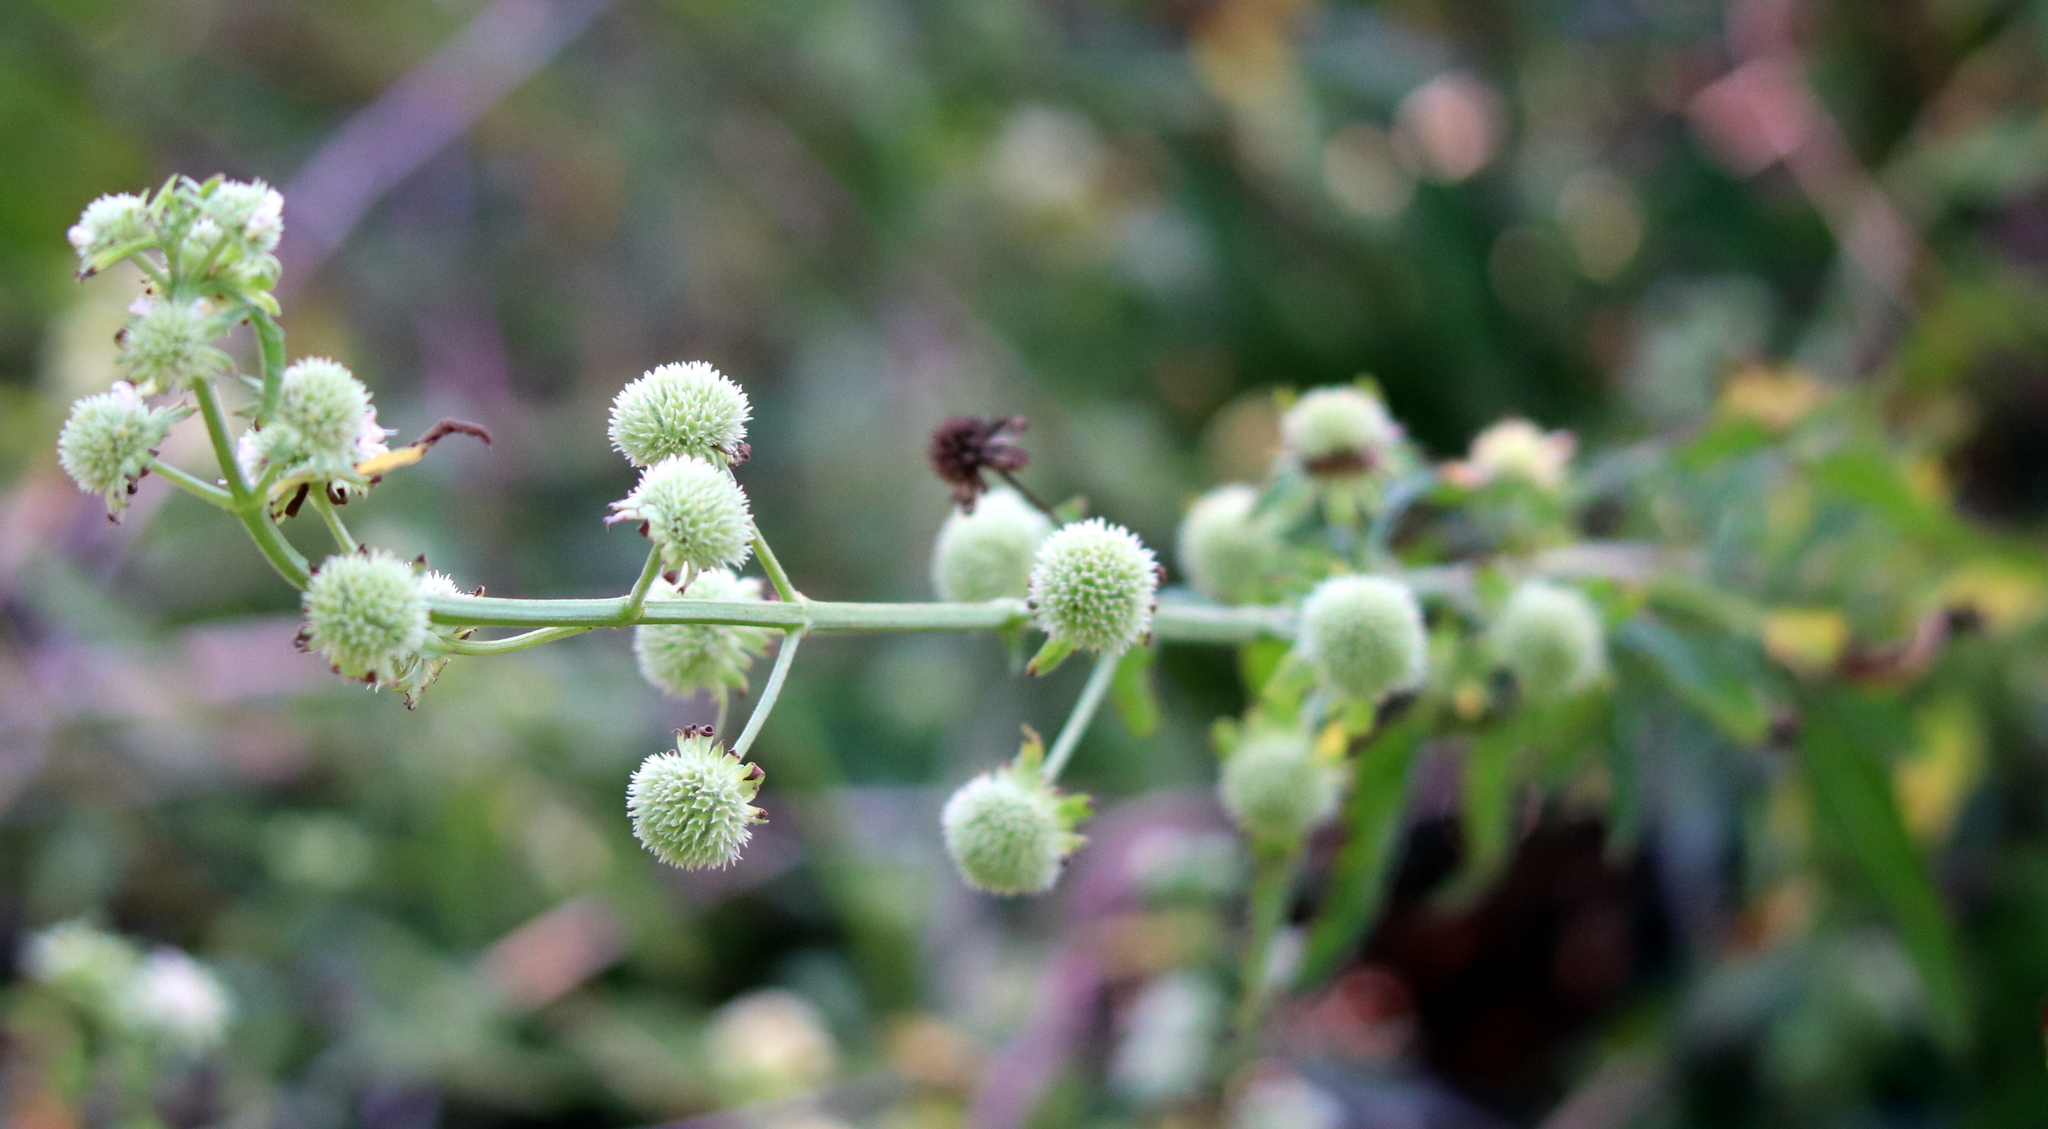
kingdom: Plantae
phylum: Tracheophyta
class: Magnoliopsida
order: Lamiales
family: Lamiaceae
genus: Hyptis
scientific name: Hyptis alata
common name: Cluster bush-mint
